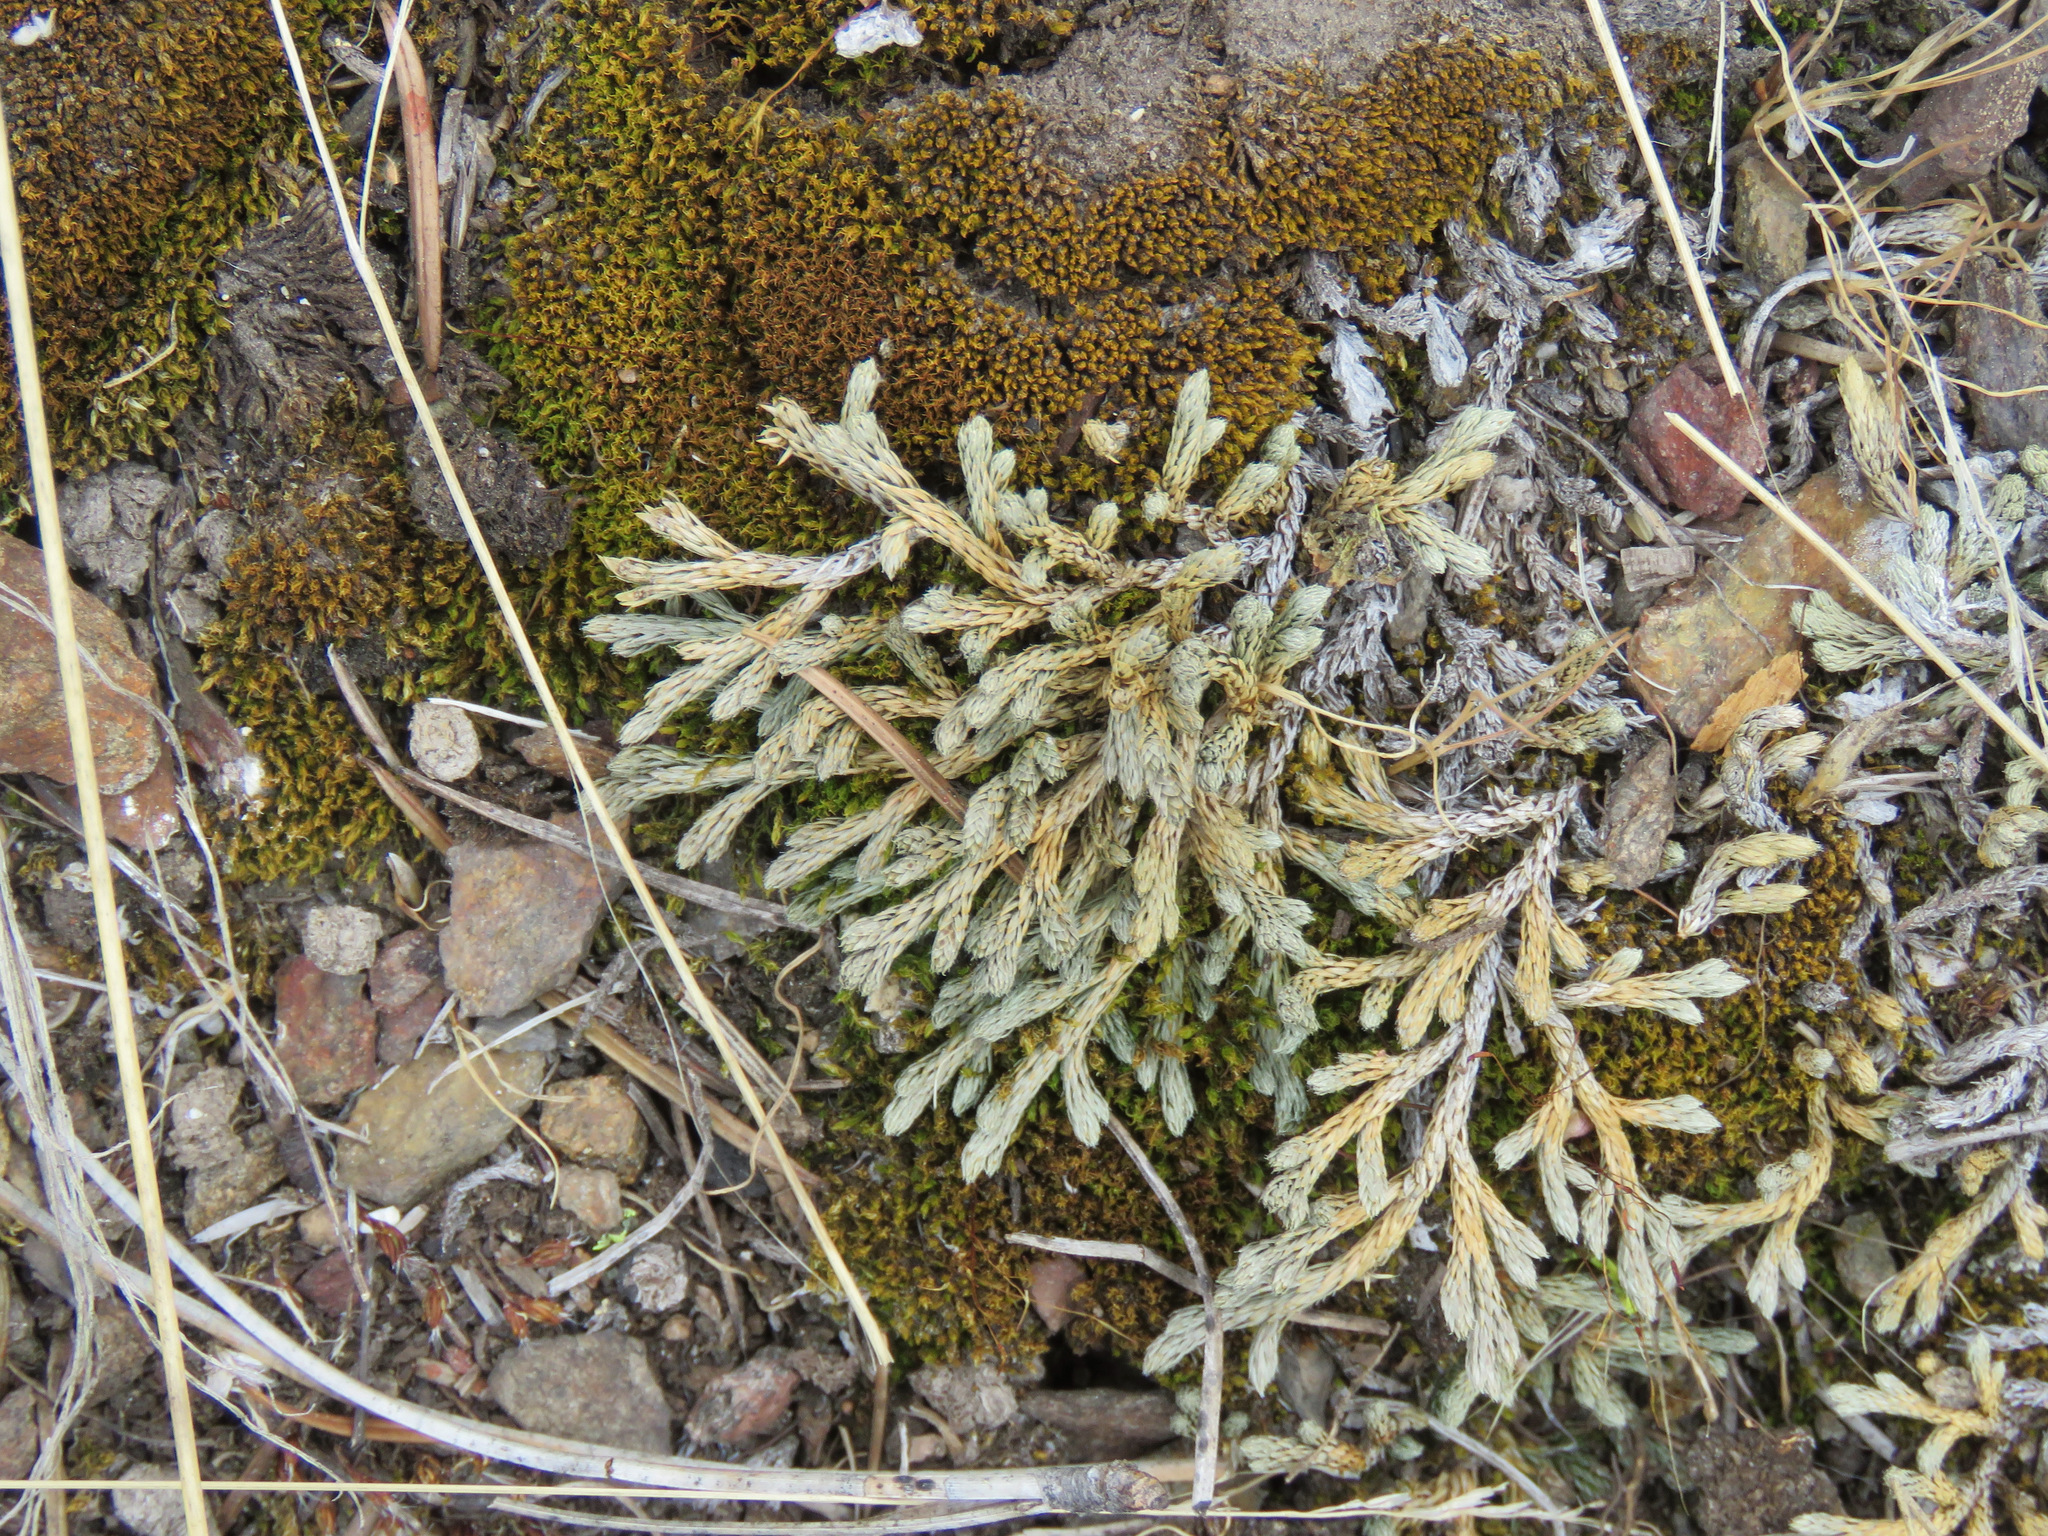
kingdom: Plantae
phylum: Tracheophyta
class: Lycopodiopsida
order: Selaginellales
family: Selaginellaceae
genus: Selaginella
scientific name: Selaginella wallacei
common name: Wallace's selaginella
